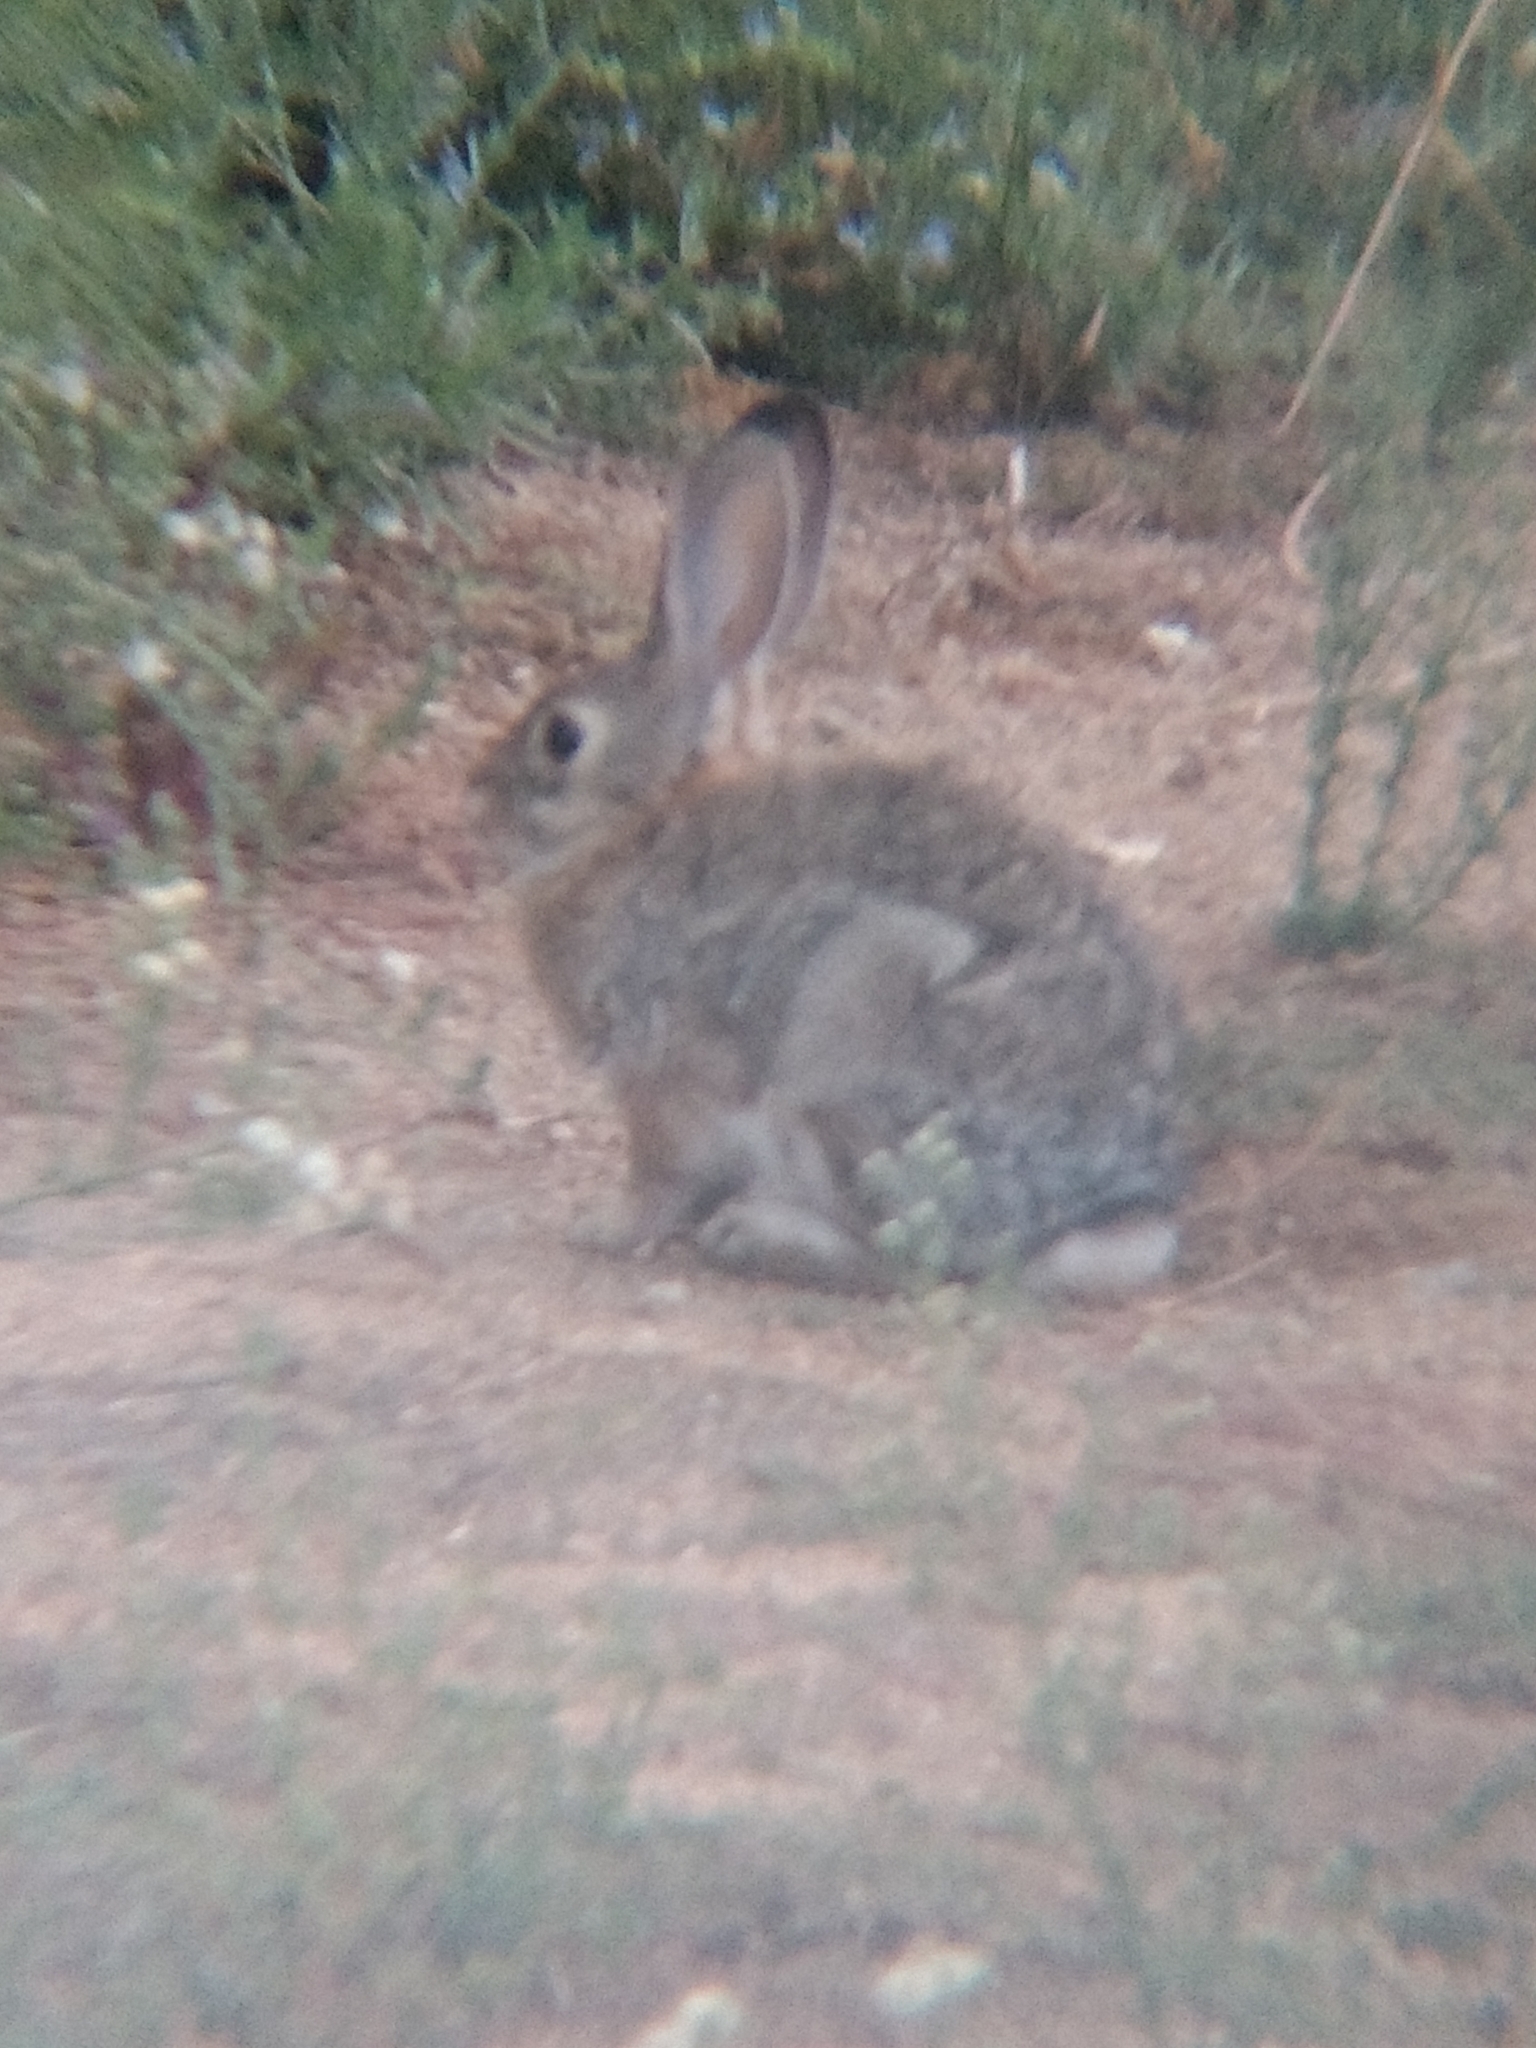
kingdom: Animalia
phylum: Chordata
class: Mammalia
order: Lagomorpha
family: Leporidae
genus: Sylvilagus
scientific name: Sylvilagus audubonii
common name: Desert cottontail
